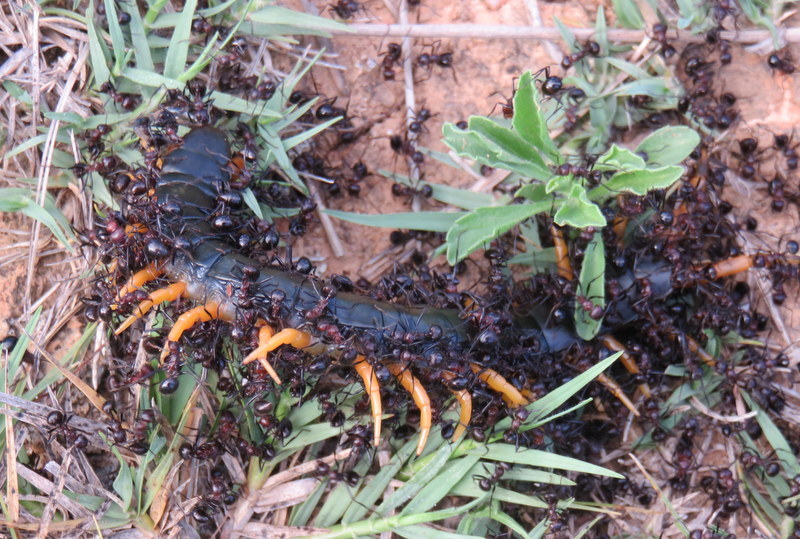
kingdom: Animalia
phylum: Arthropoda
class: Chilopoda
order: Scolopendromorpha
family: Scolopendridae
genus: Ethmostigmus
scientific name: Ethmostigmus trigonopodus
